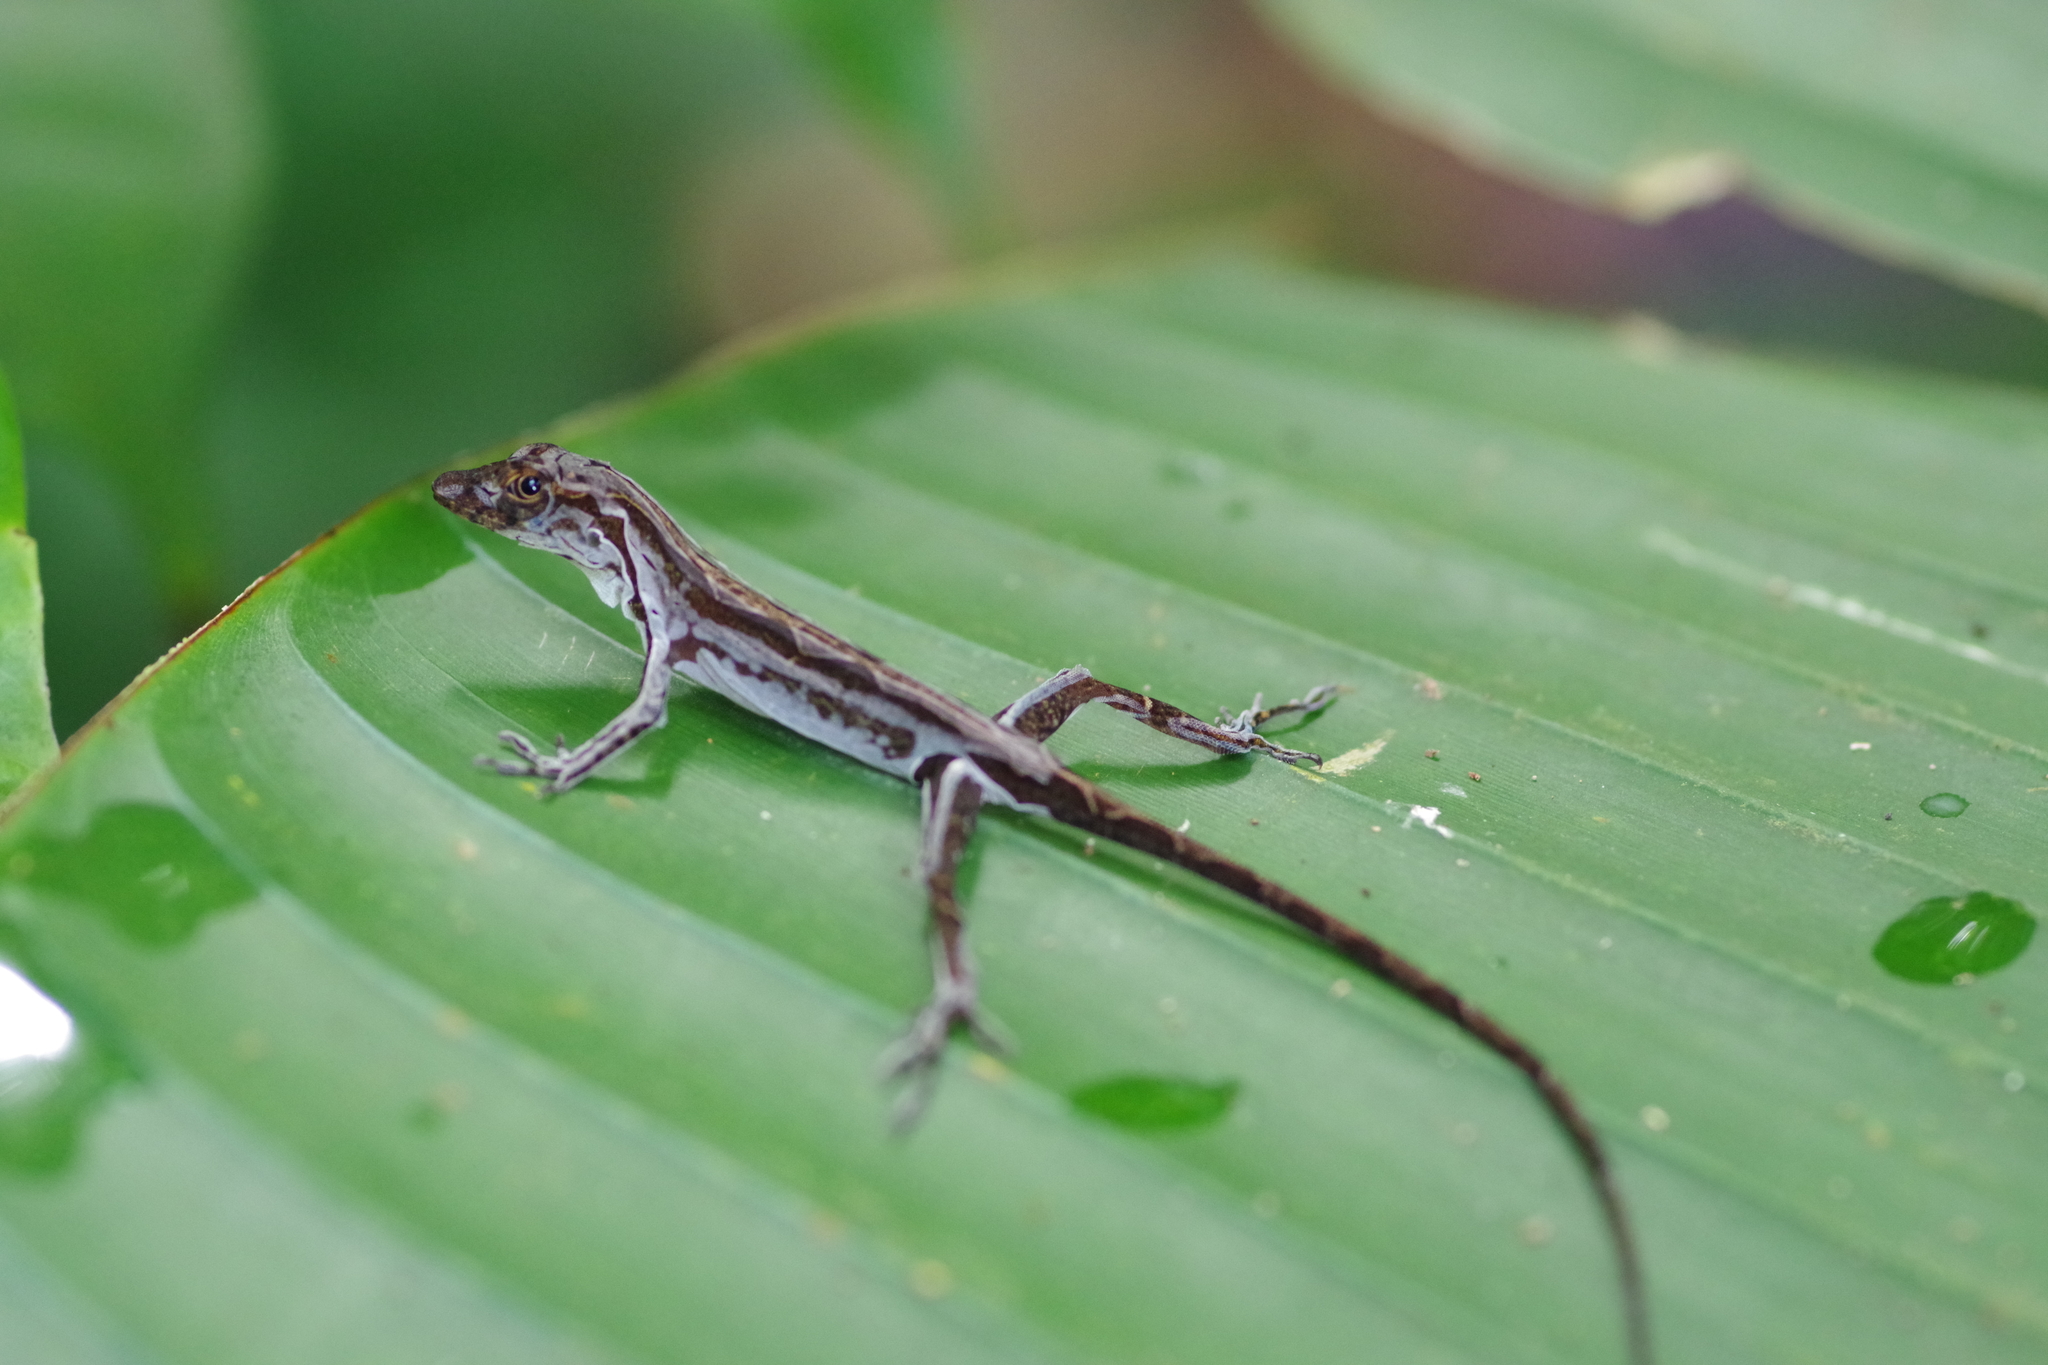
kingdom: Animalia
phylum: Chordata
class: Squamata
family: Dactyloidae
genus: Anolis
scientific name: Anolis osa
